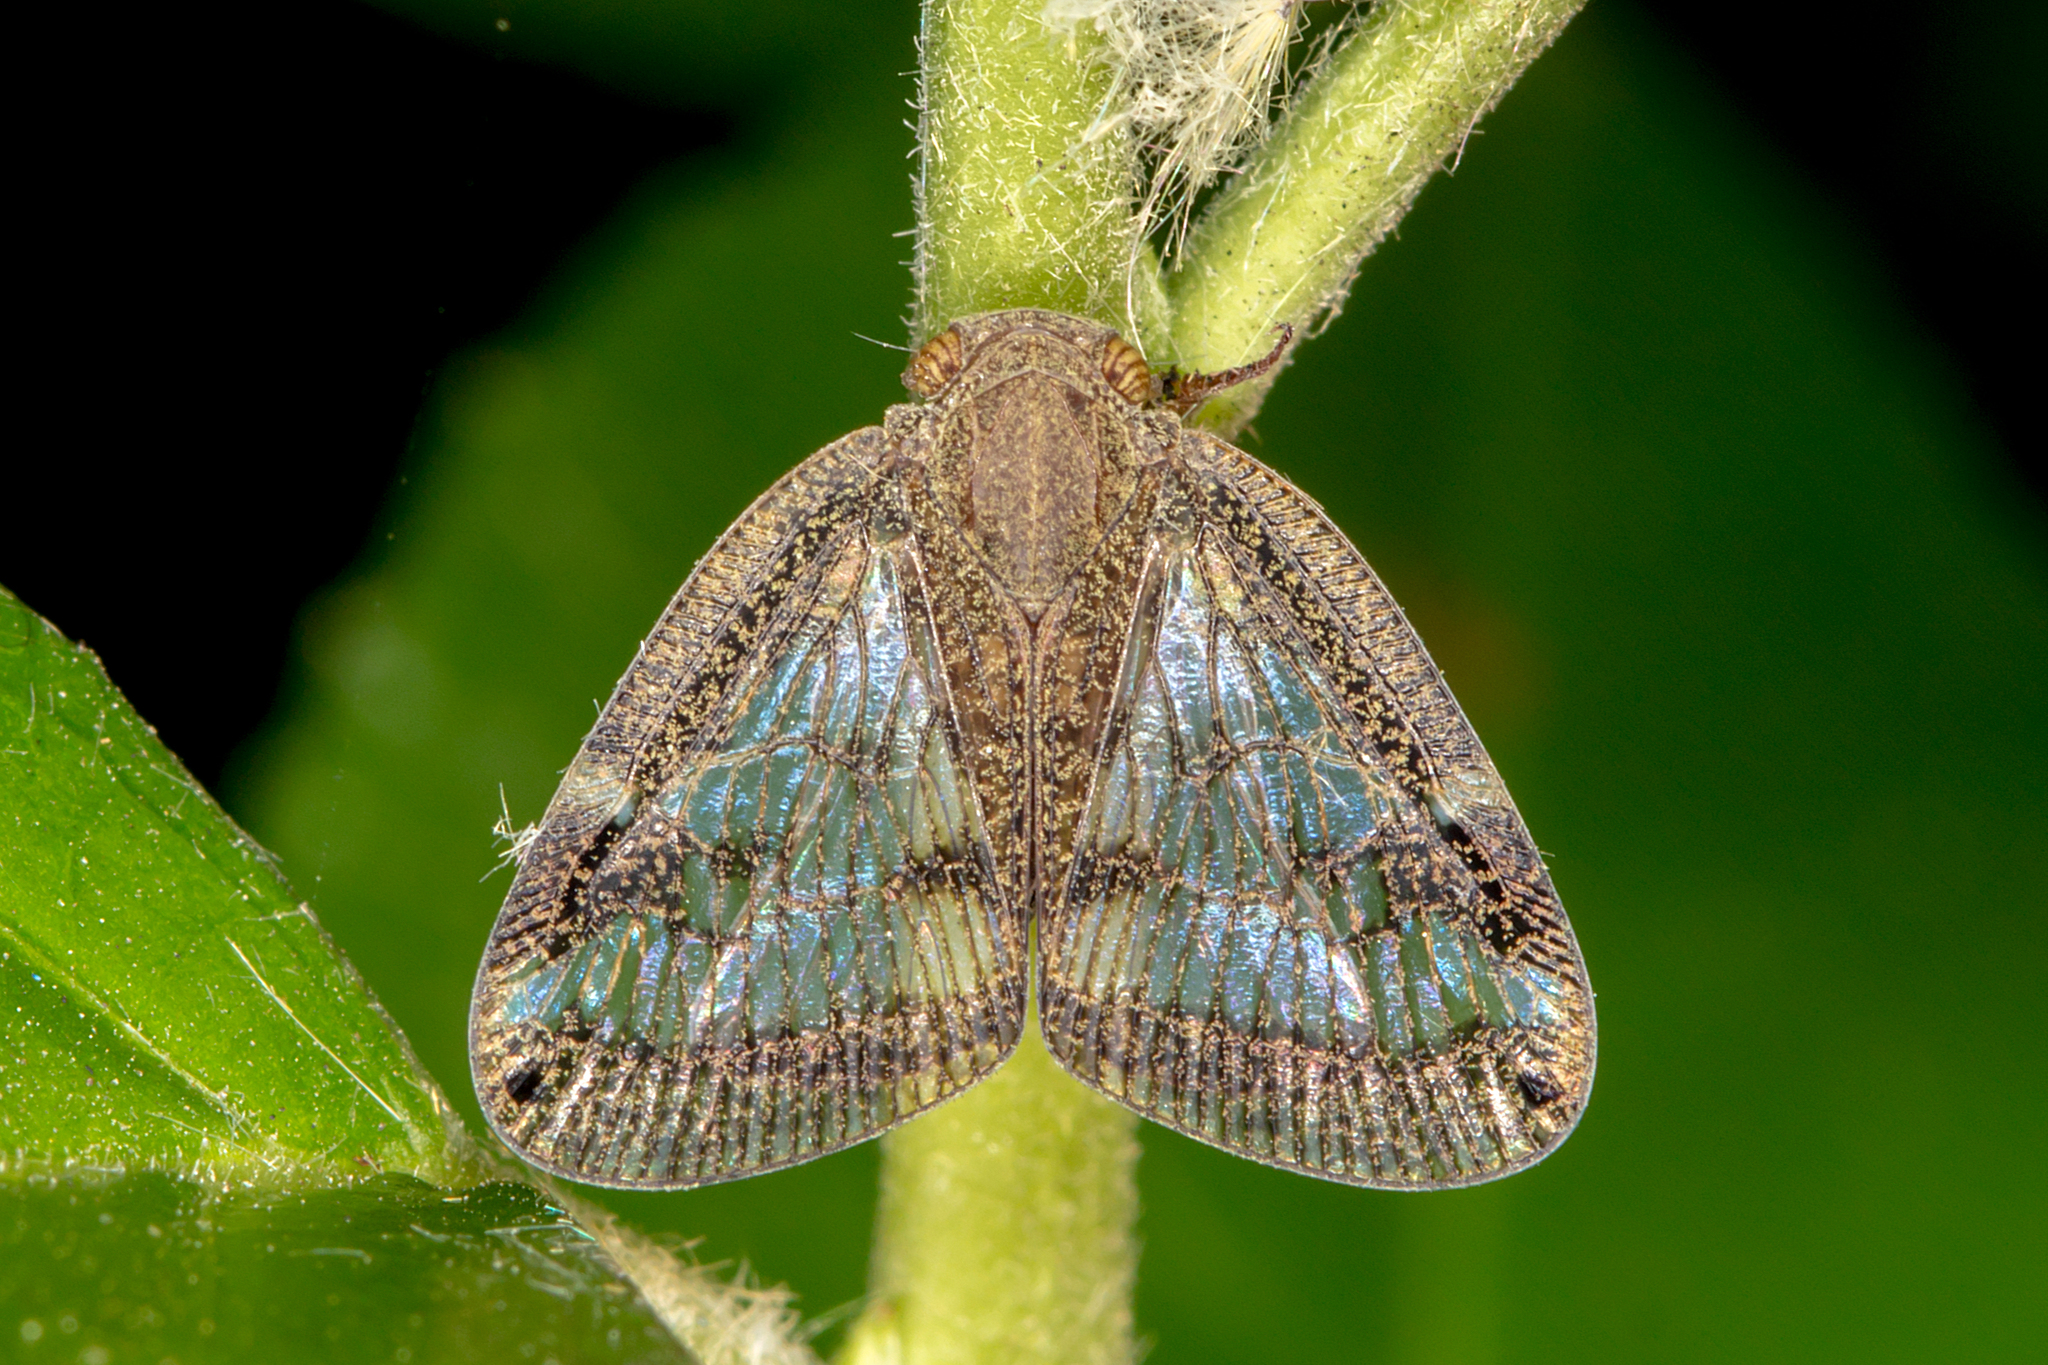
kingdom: Animalia
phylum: Arthropoda
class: Insecta
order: Hemiptera
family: Ricaniidae
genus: Scolypopa
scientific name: Scolypopa australis
